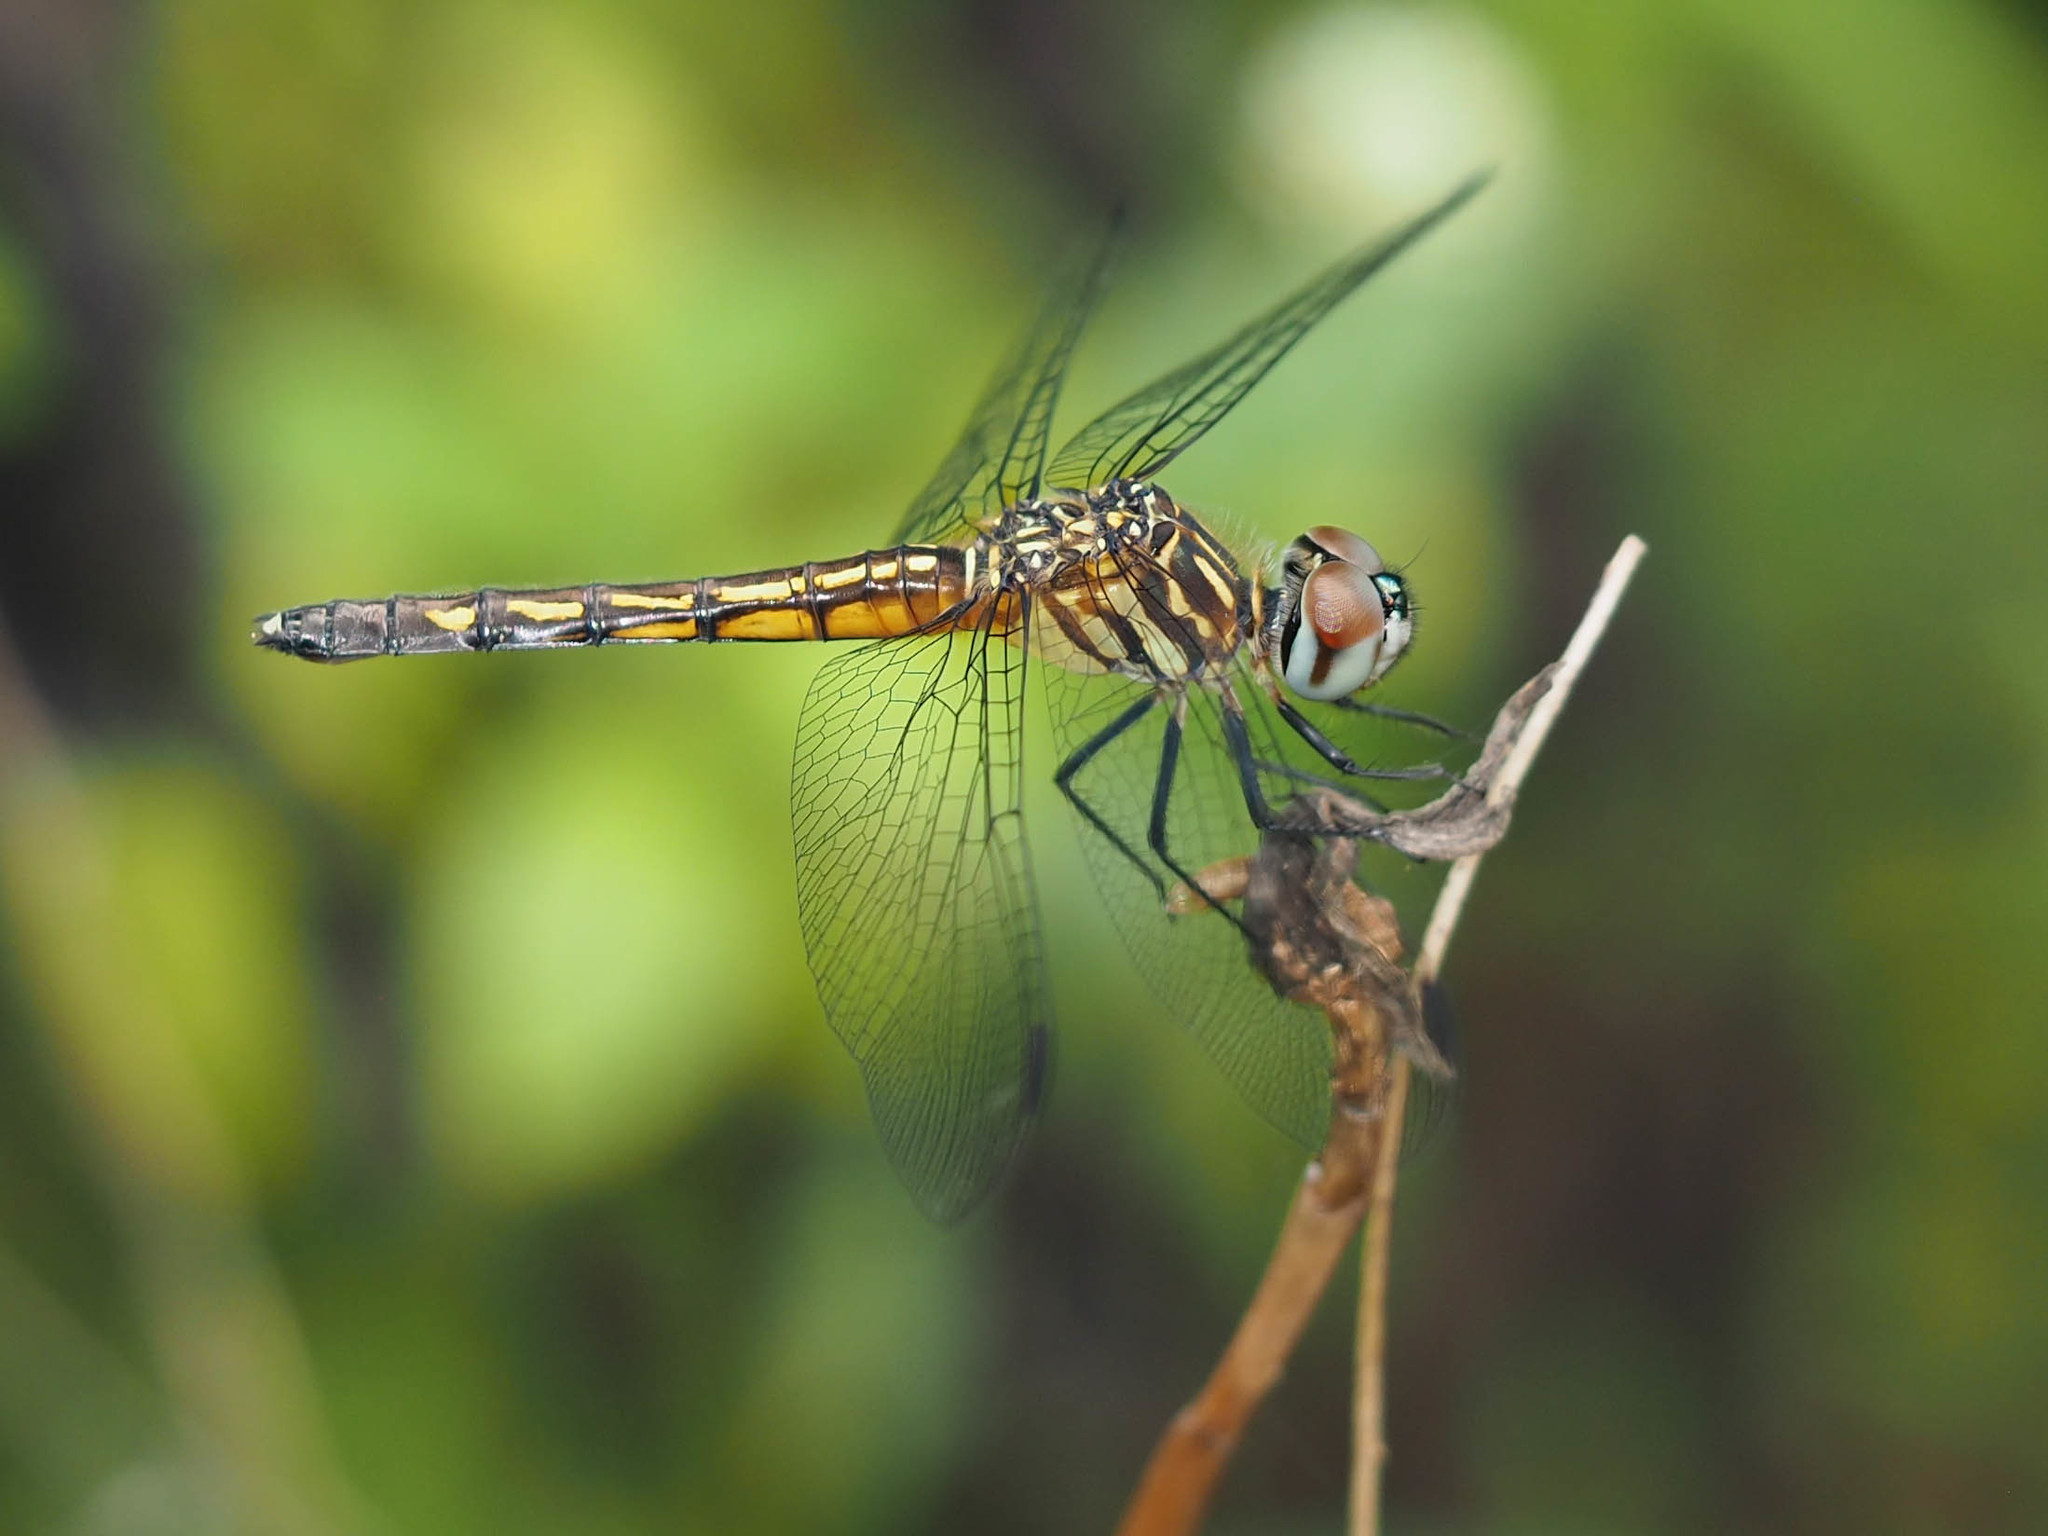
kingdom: Animalia
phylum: Arthropoda
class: Insecta
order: Odonata
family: Libellulidae
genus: Pachydiplax
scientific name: Pachydiplax longipennis
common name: Blue dasher
